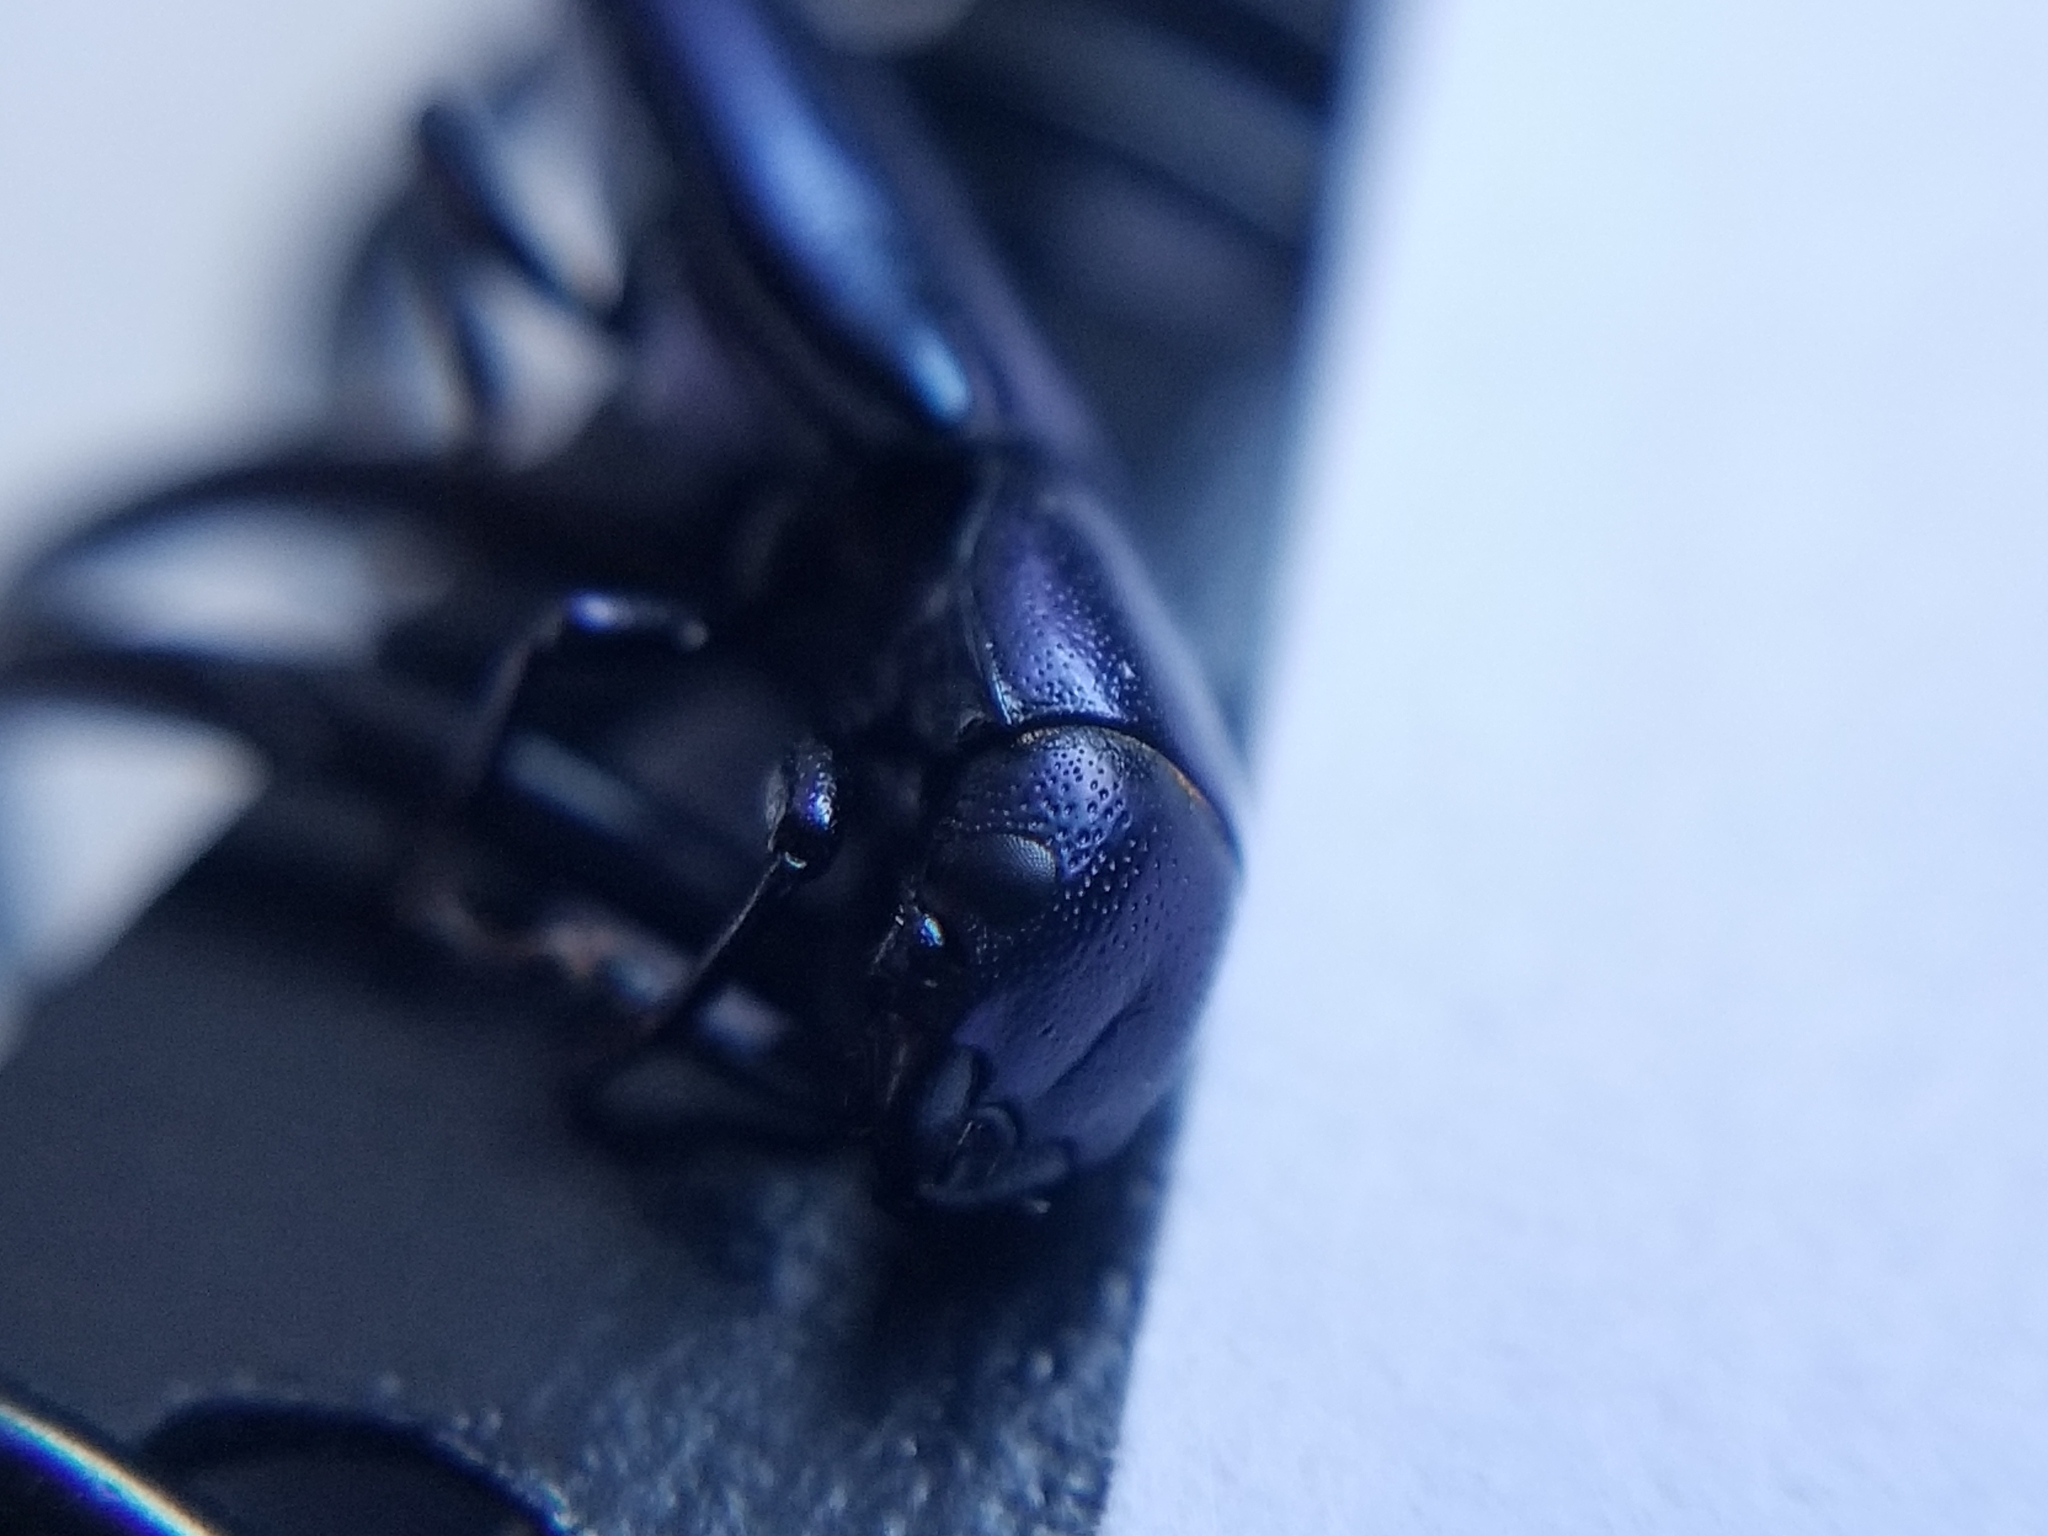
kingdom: Animalia
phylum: Arthropoda
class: Insecta
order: Coleoptera
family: Trogossitidae
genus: Temnoscheila
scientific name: Temnoscheila chlorodia
